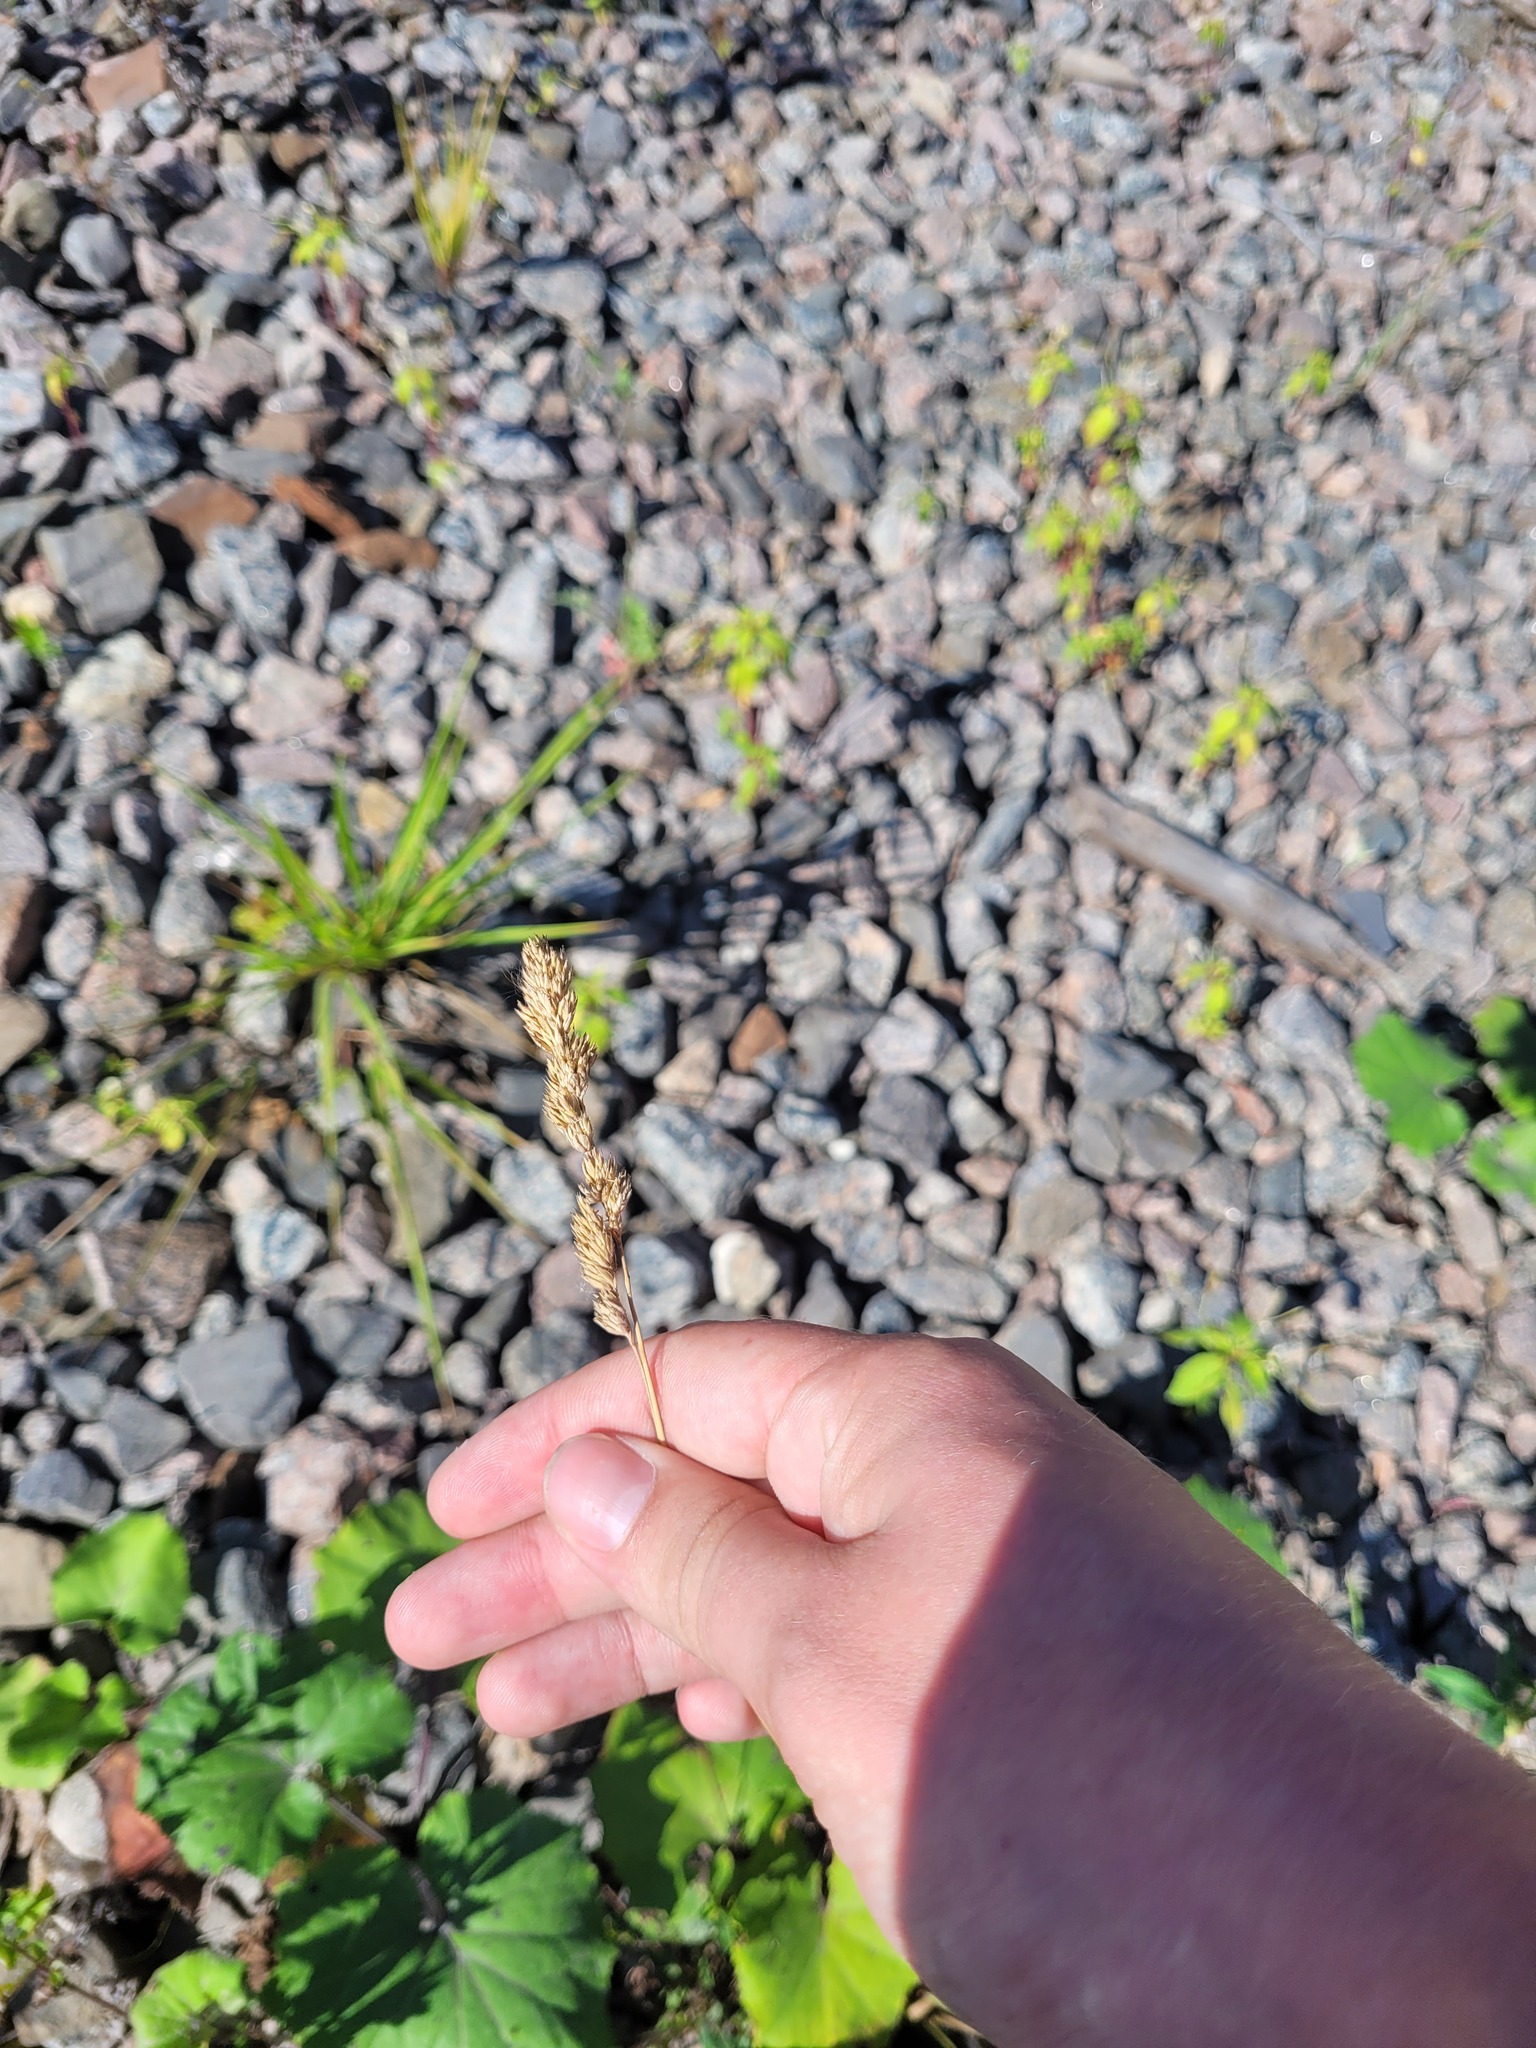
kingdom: Plantae
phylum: Tracheophyta
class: Liliopsida
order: Poales
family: Poaceae
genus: Dactylis
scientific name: Dactylis glomerata
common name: Orchardgrass
